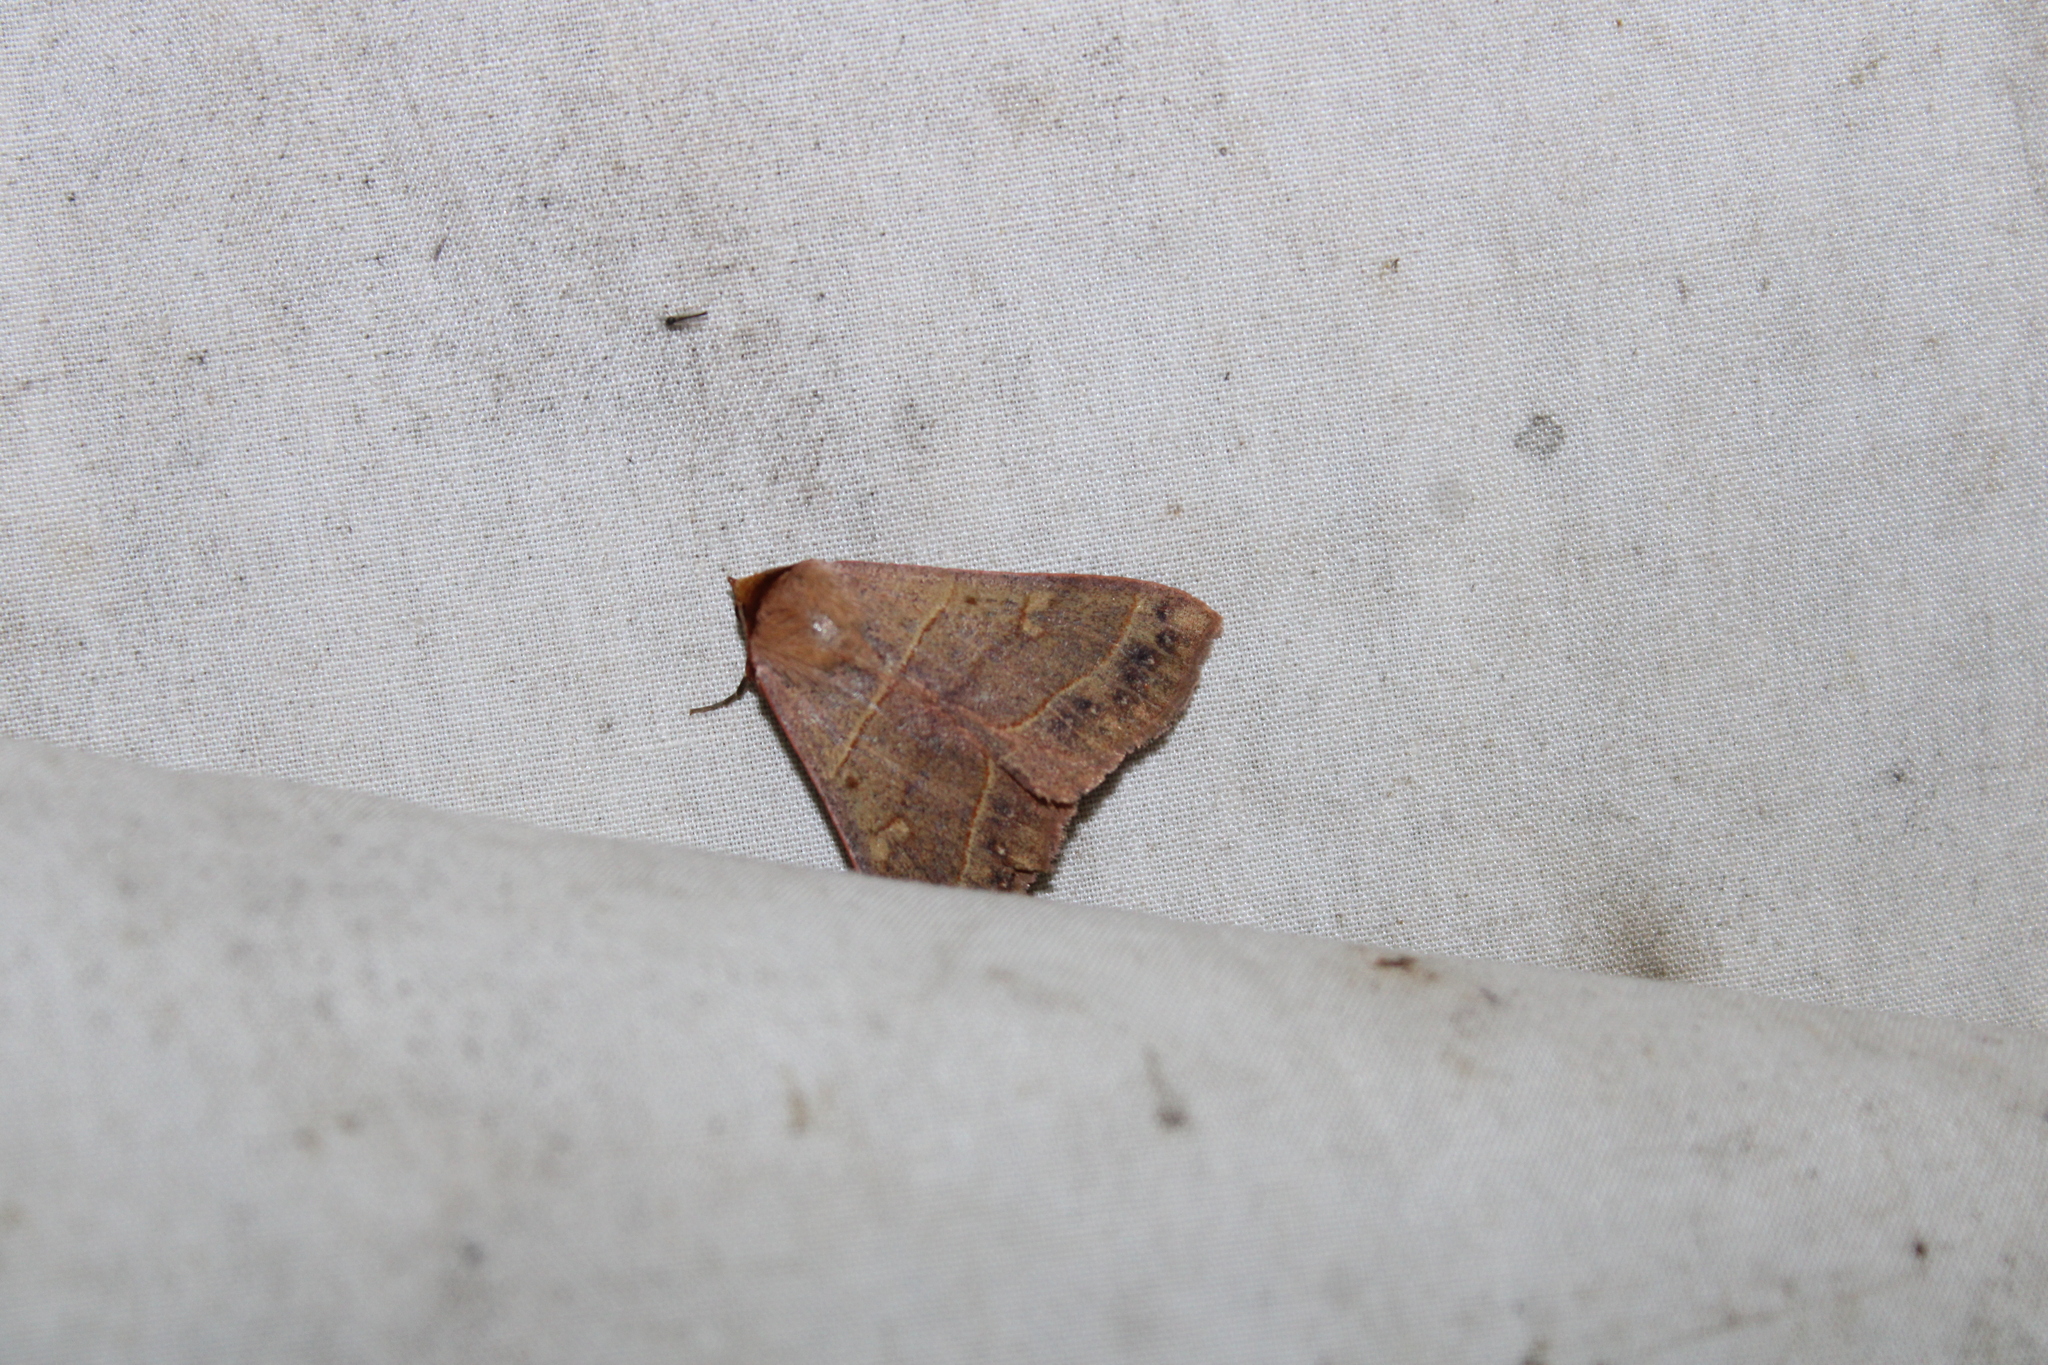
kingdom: Animalia
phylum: Arthropoda
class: Insecta
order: Lepidoptera
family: Erebidae
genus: Panopoda
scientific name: Panopoda rufimargo
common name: Red-lined panopoda moth
